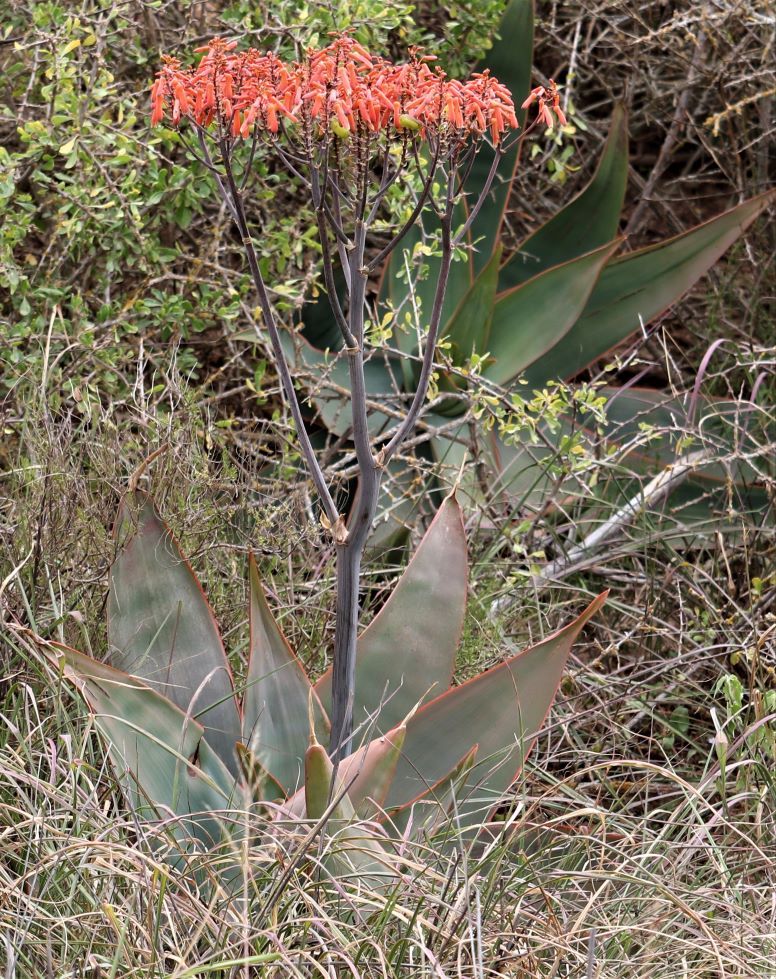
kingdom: Plantae
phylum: Tracheophyta
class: Liliopsida
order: Asparagales
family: Asphodelaceae
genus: Aloe
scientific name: Aloe striata
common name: Coral aloe
